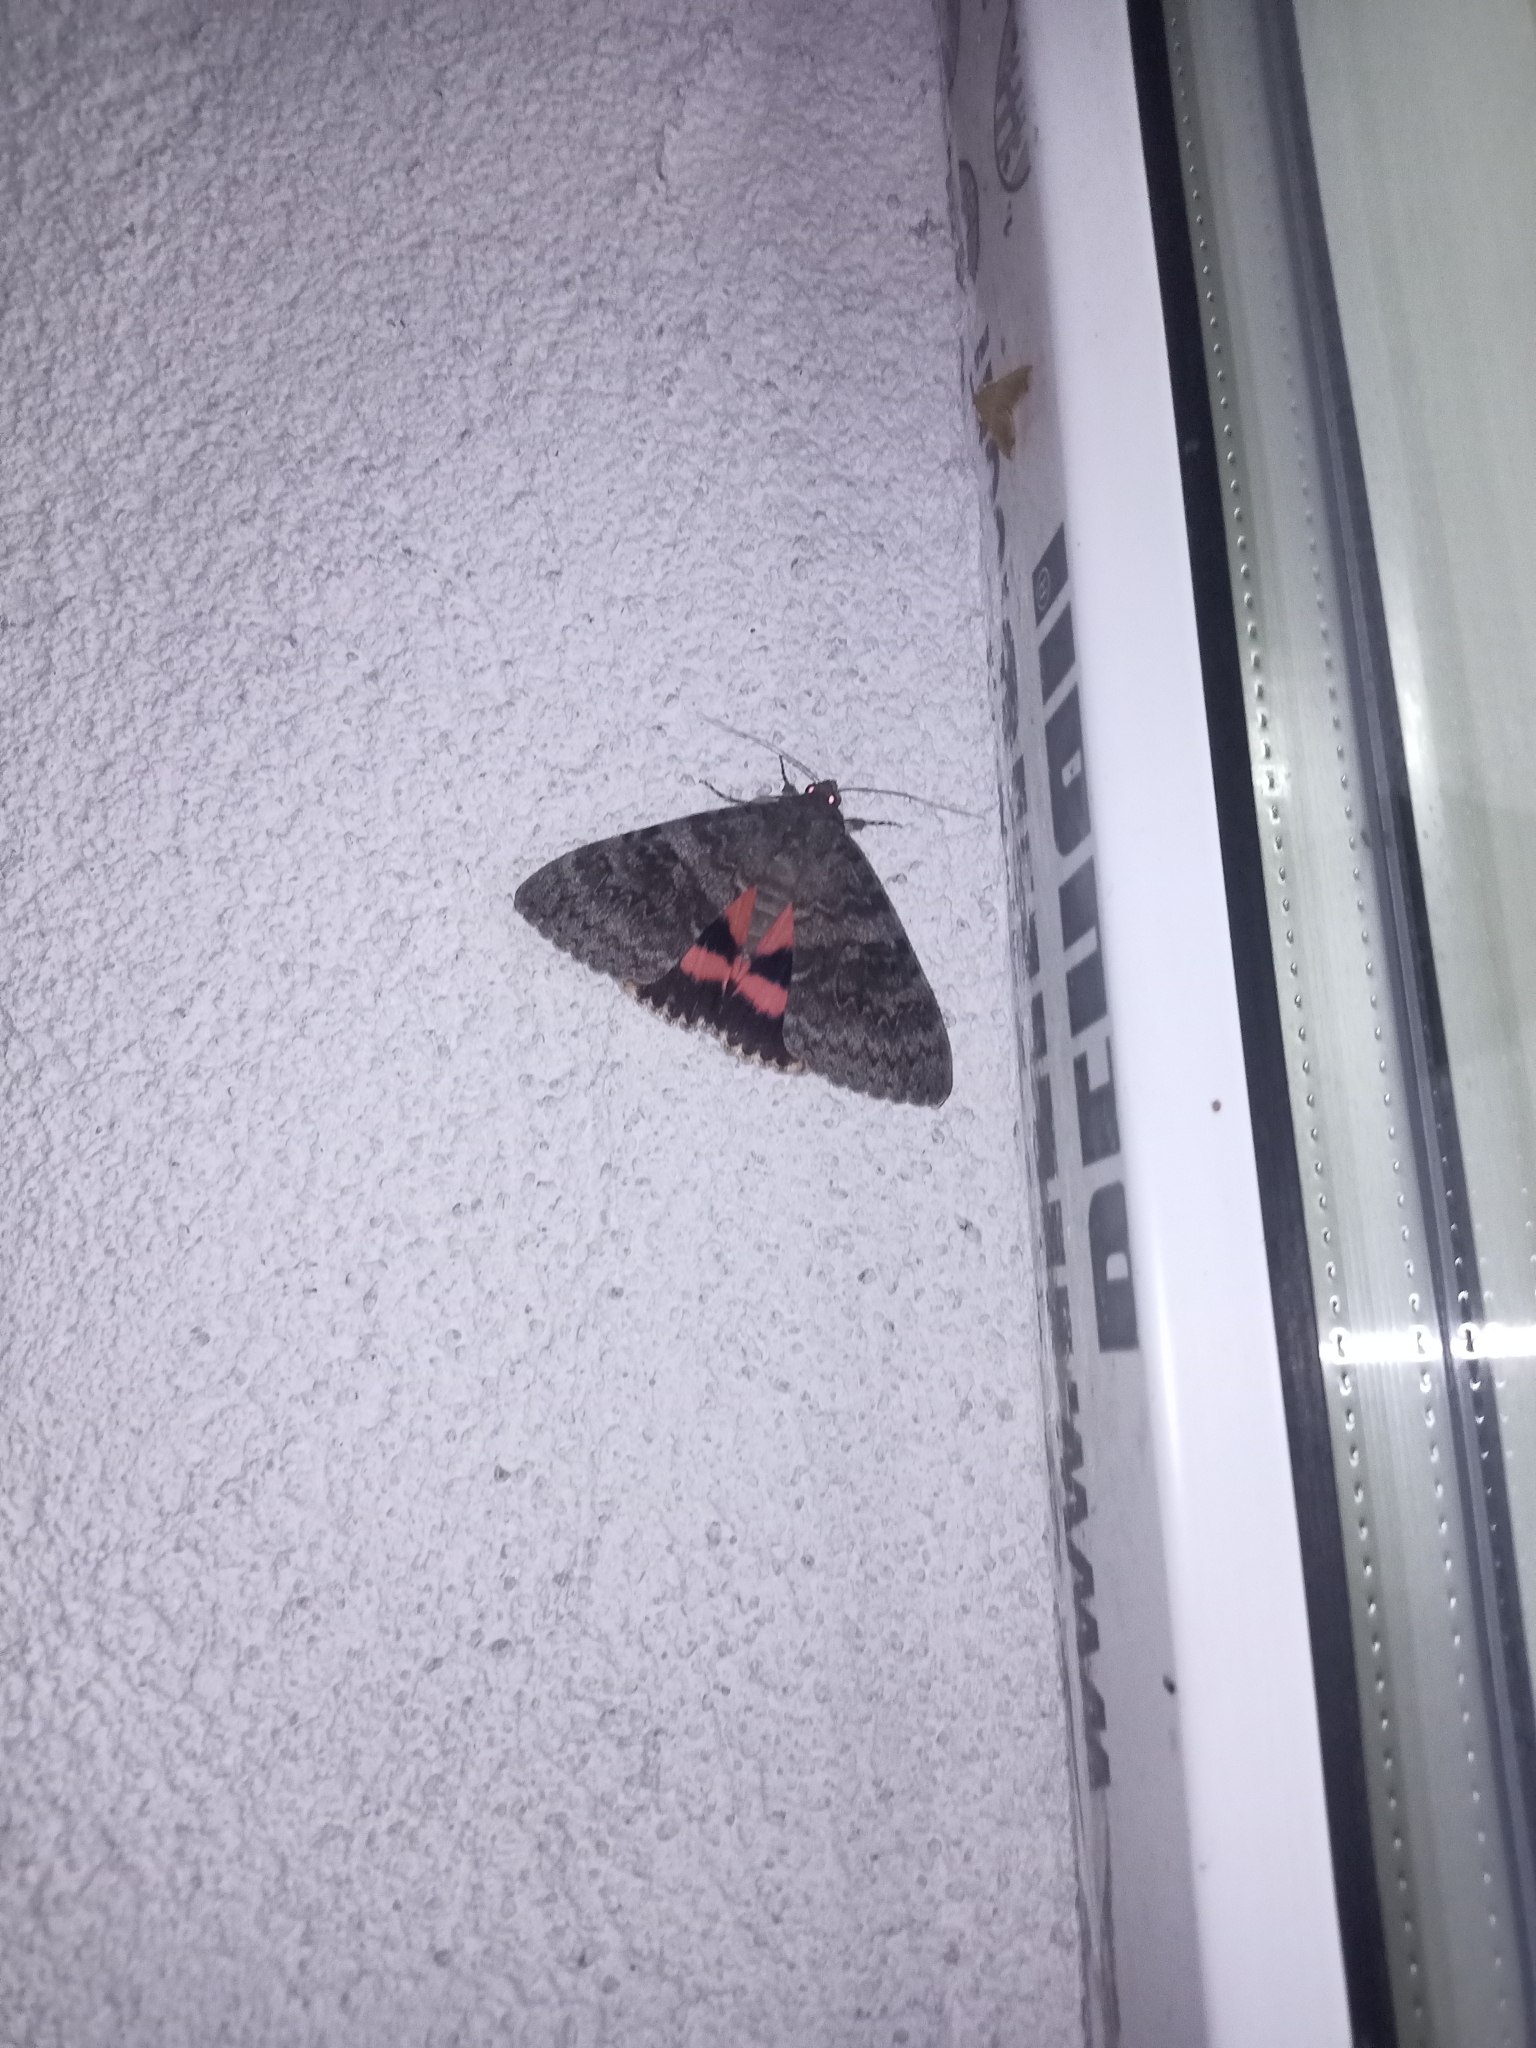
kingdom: Animalia
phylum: Arthropoda
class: Insecta
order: Lepidoptera
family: Erebidae
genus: Catocala
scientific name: Catocala elocata
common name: French red underwing
